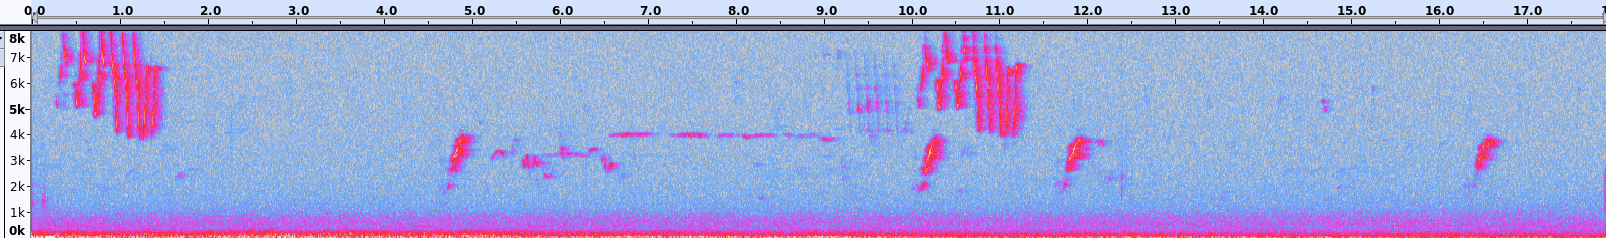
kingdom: Animalia
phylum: Chordata
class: Aves
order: Passeriformes
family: Parulidae
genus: Setophaga
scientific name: Setophaga petechia
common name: Yellow warbler
